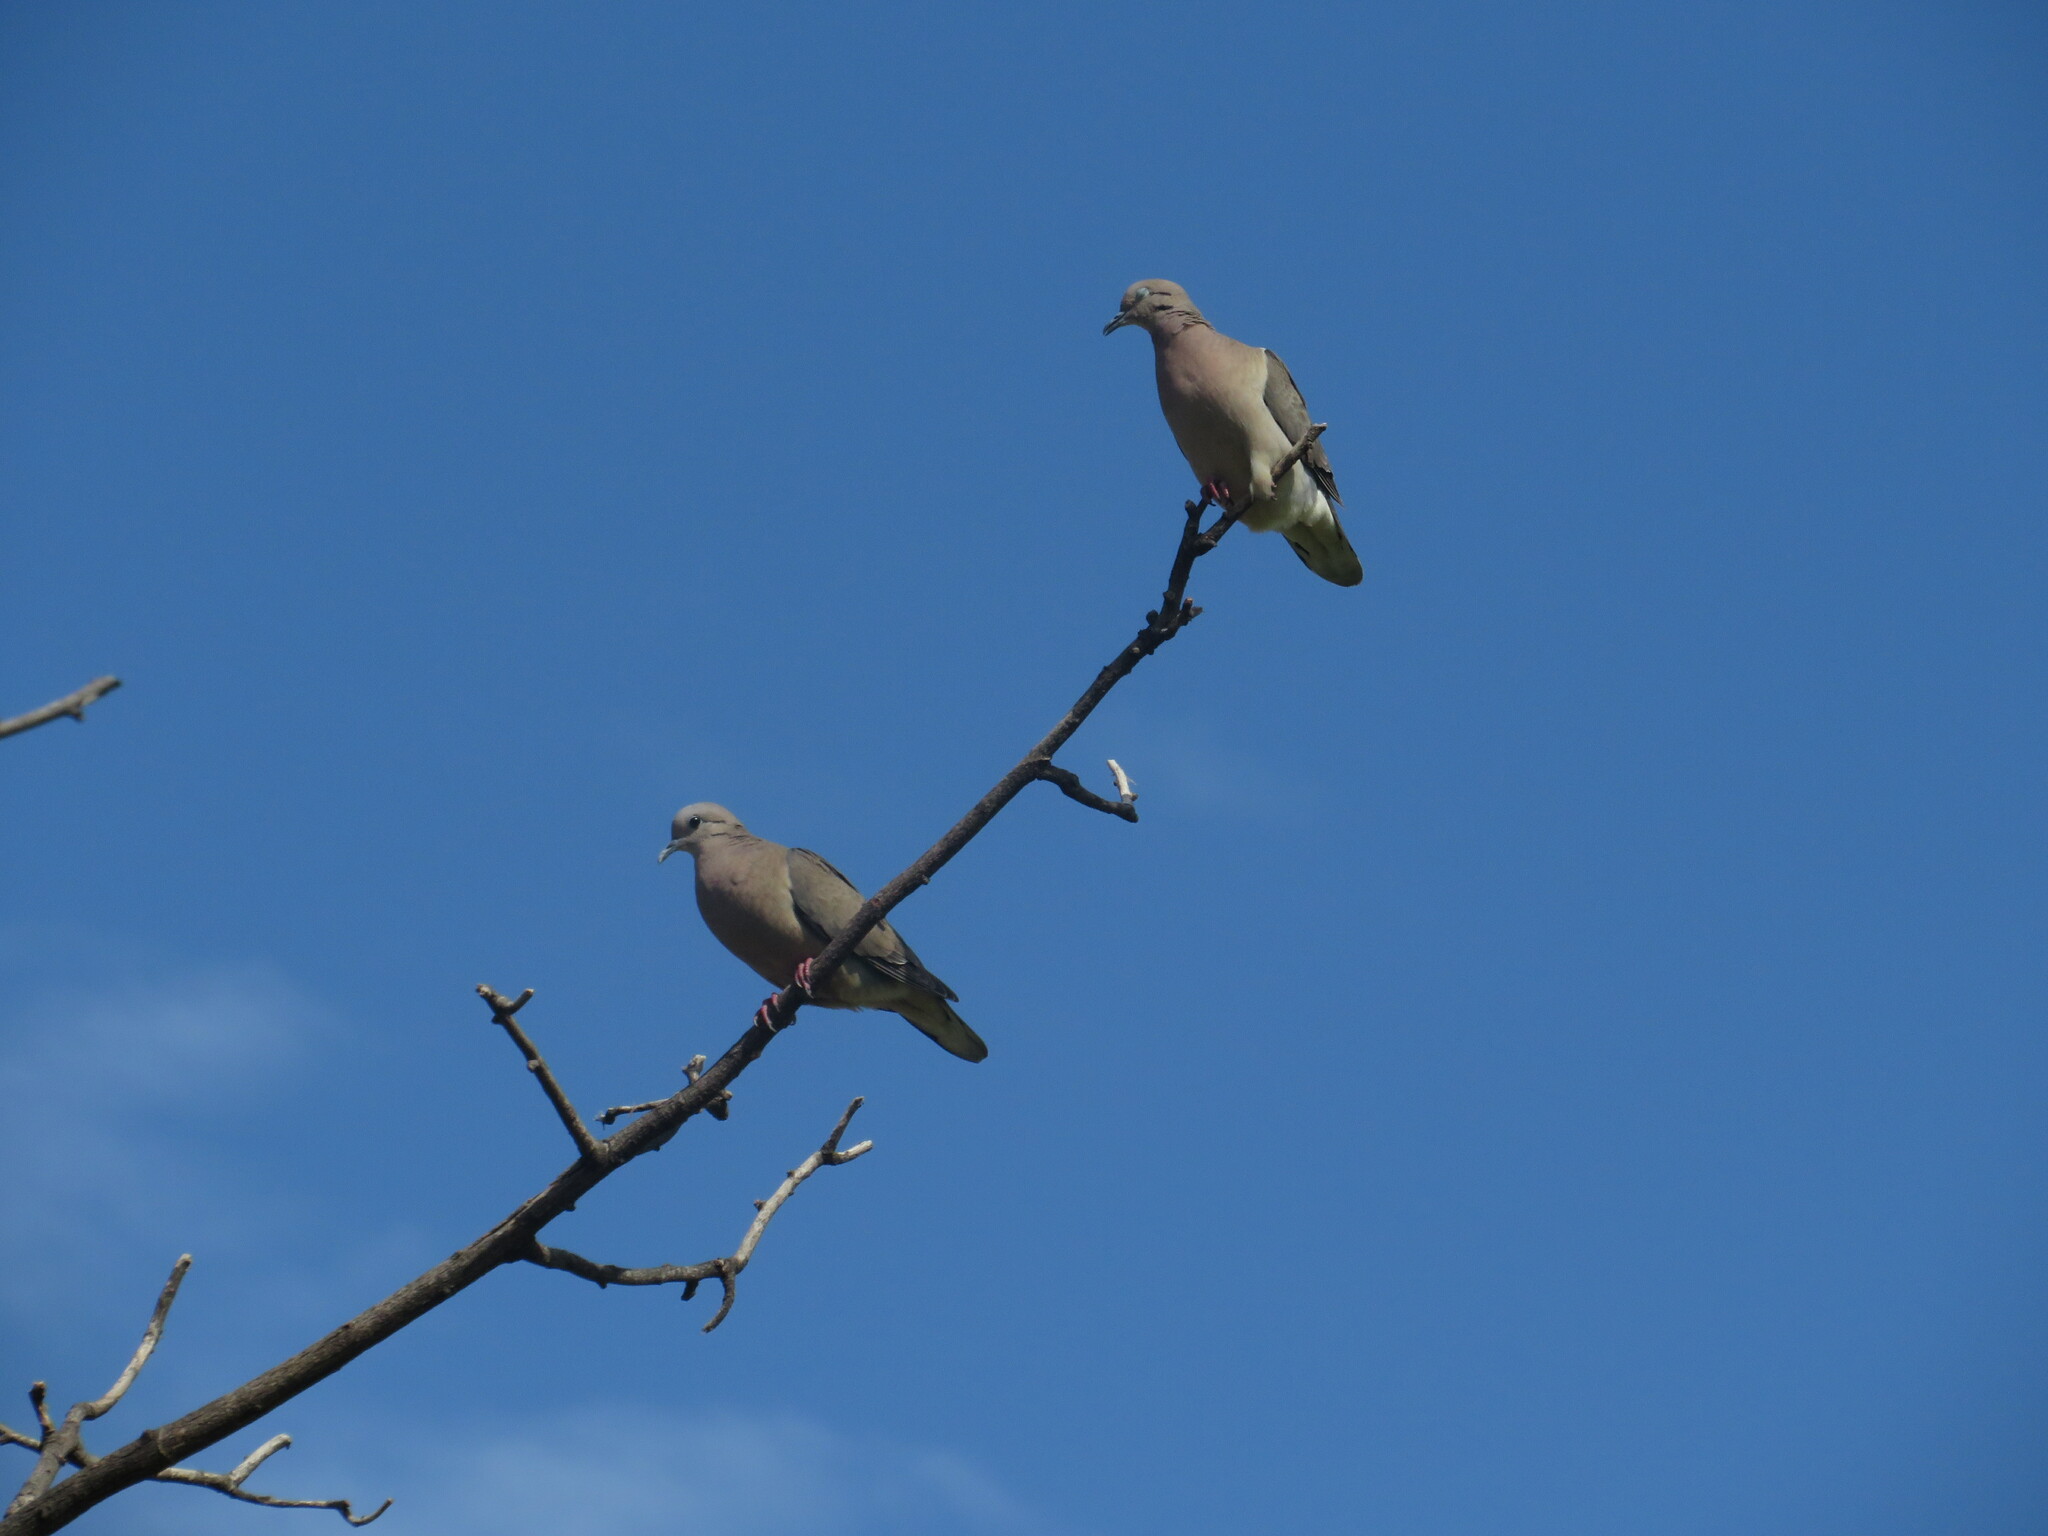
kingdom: Animalia
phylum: Chordata
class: Aves
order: Columbiformes
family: Columbidae
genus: Zenaida
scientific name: Zenaida auriculata
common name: Eared dove
